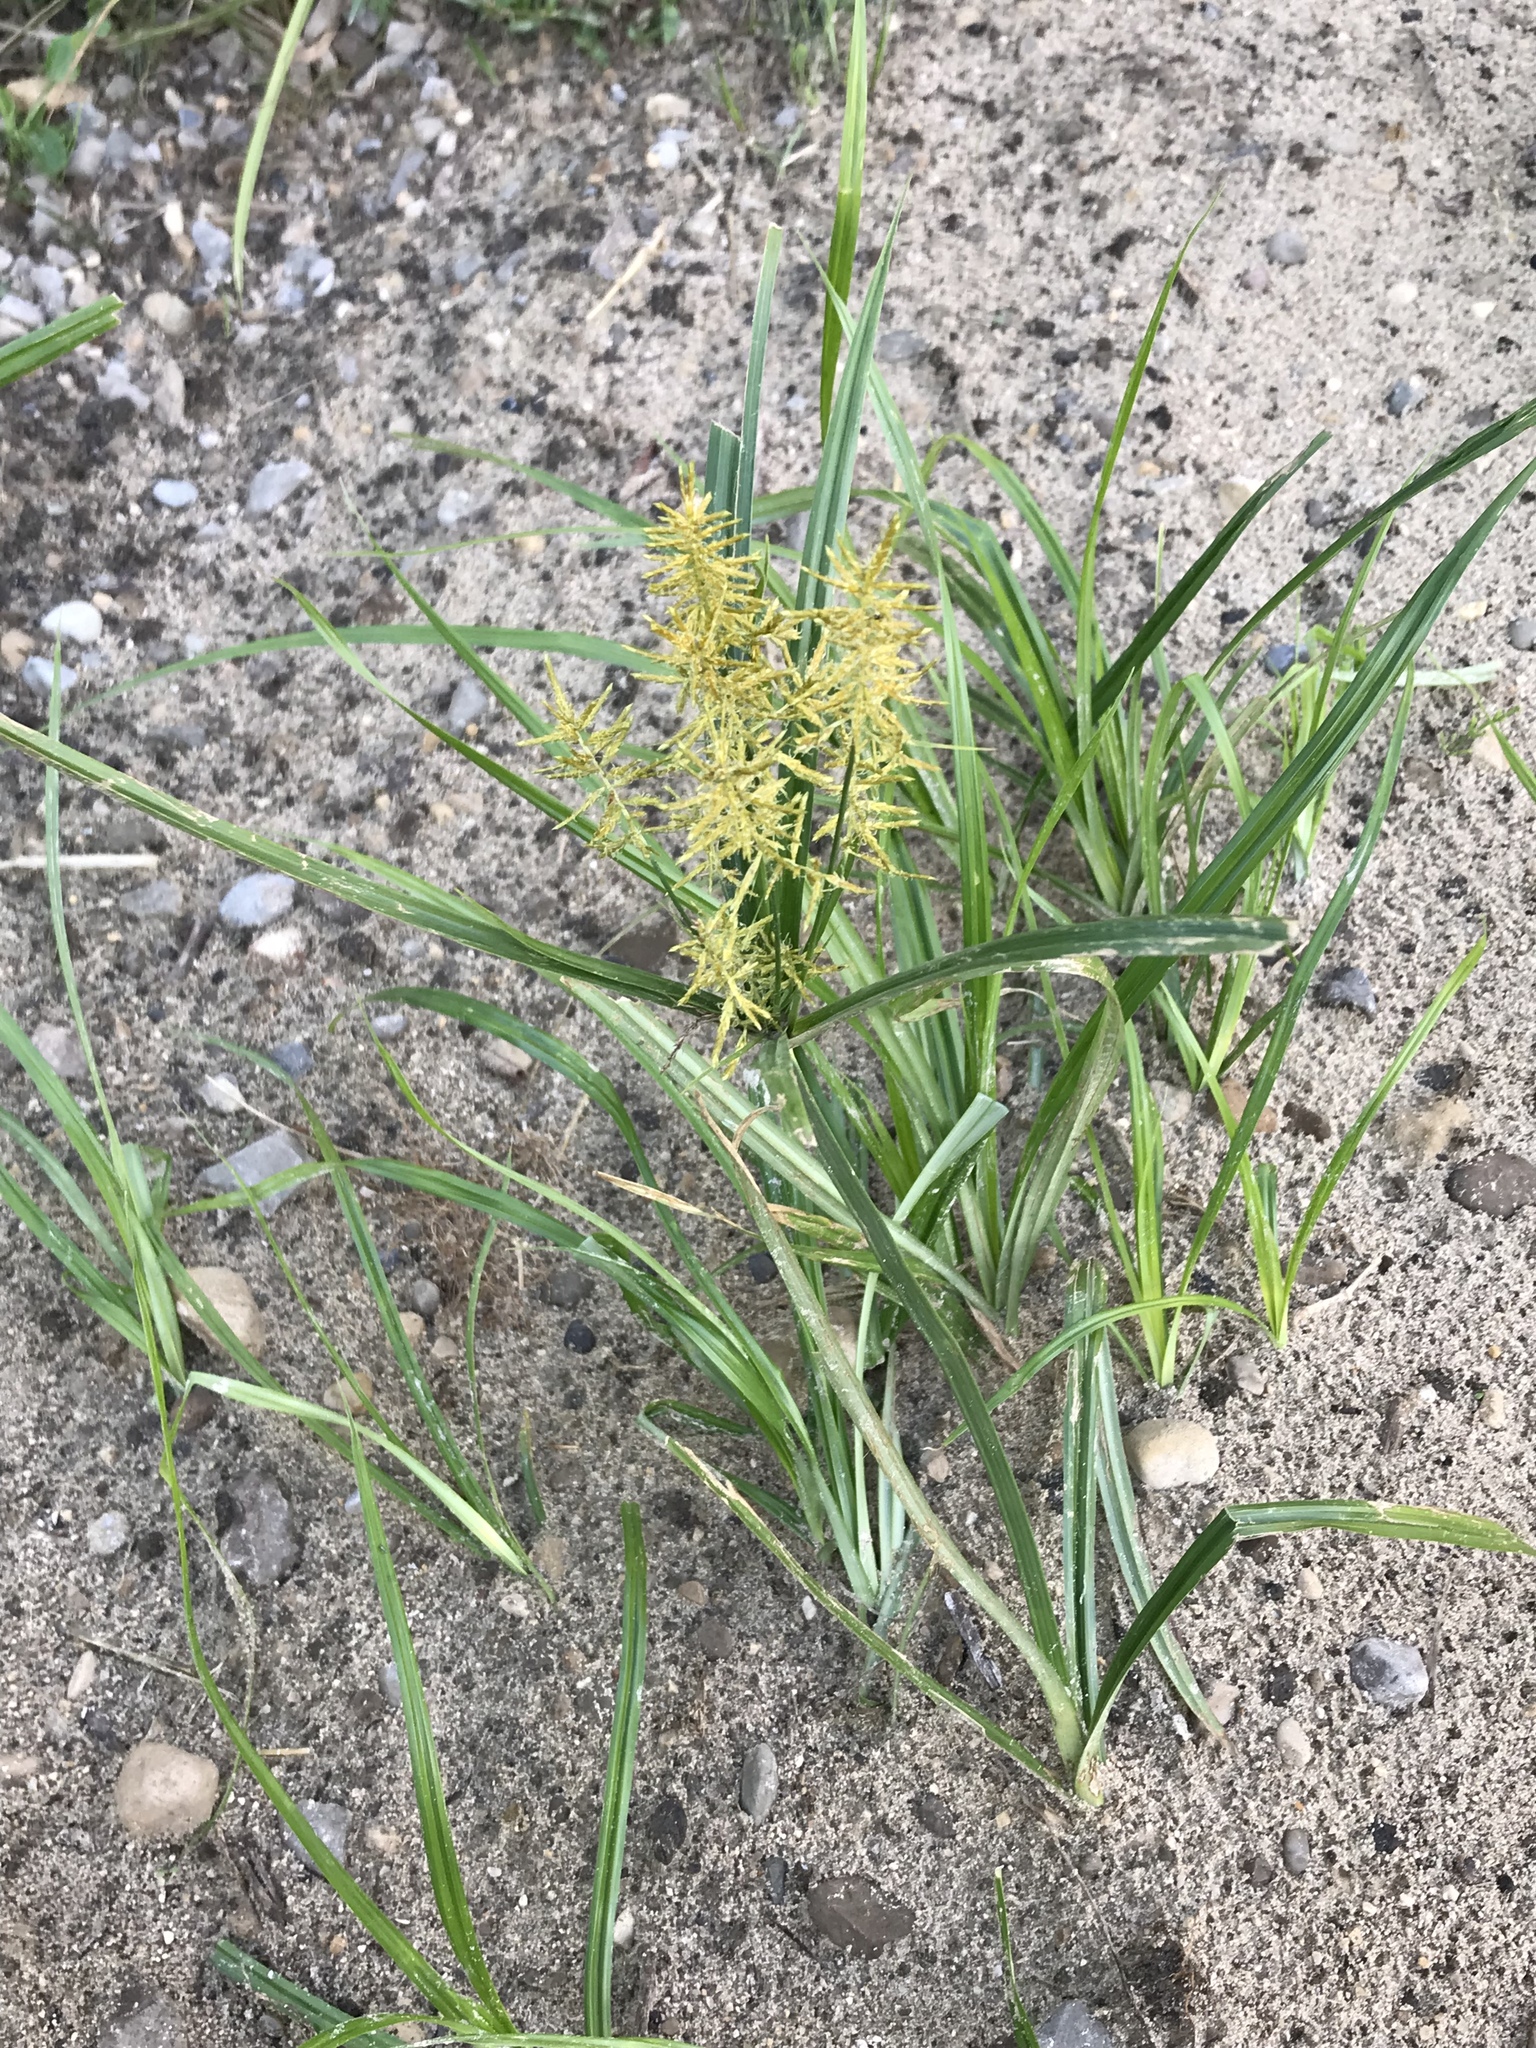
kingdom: Plantae
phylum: Tracheophyta
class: Liliopsida
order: Poales
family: Cyperaceae
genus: Cyperus
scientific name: Cyperus esculentus
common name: Yellow nutsedge
